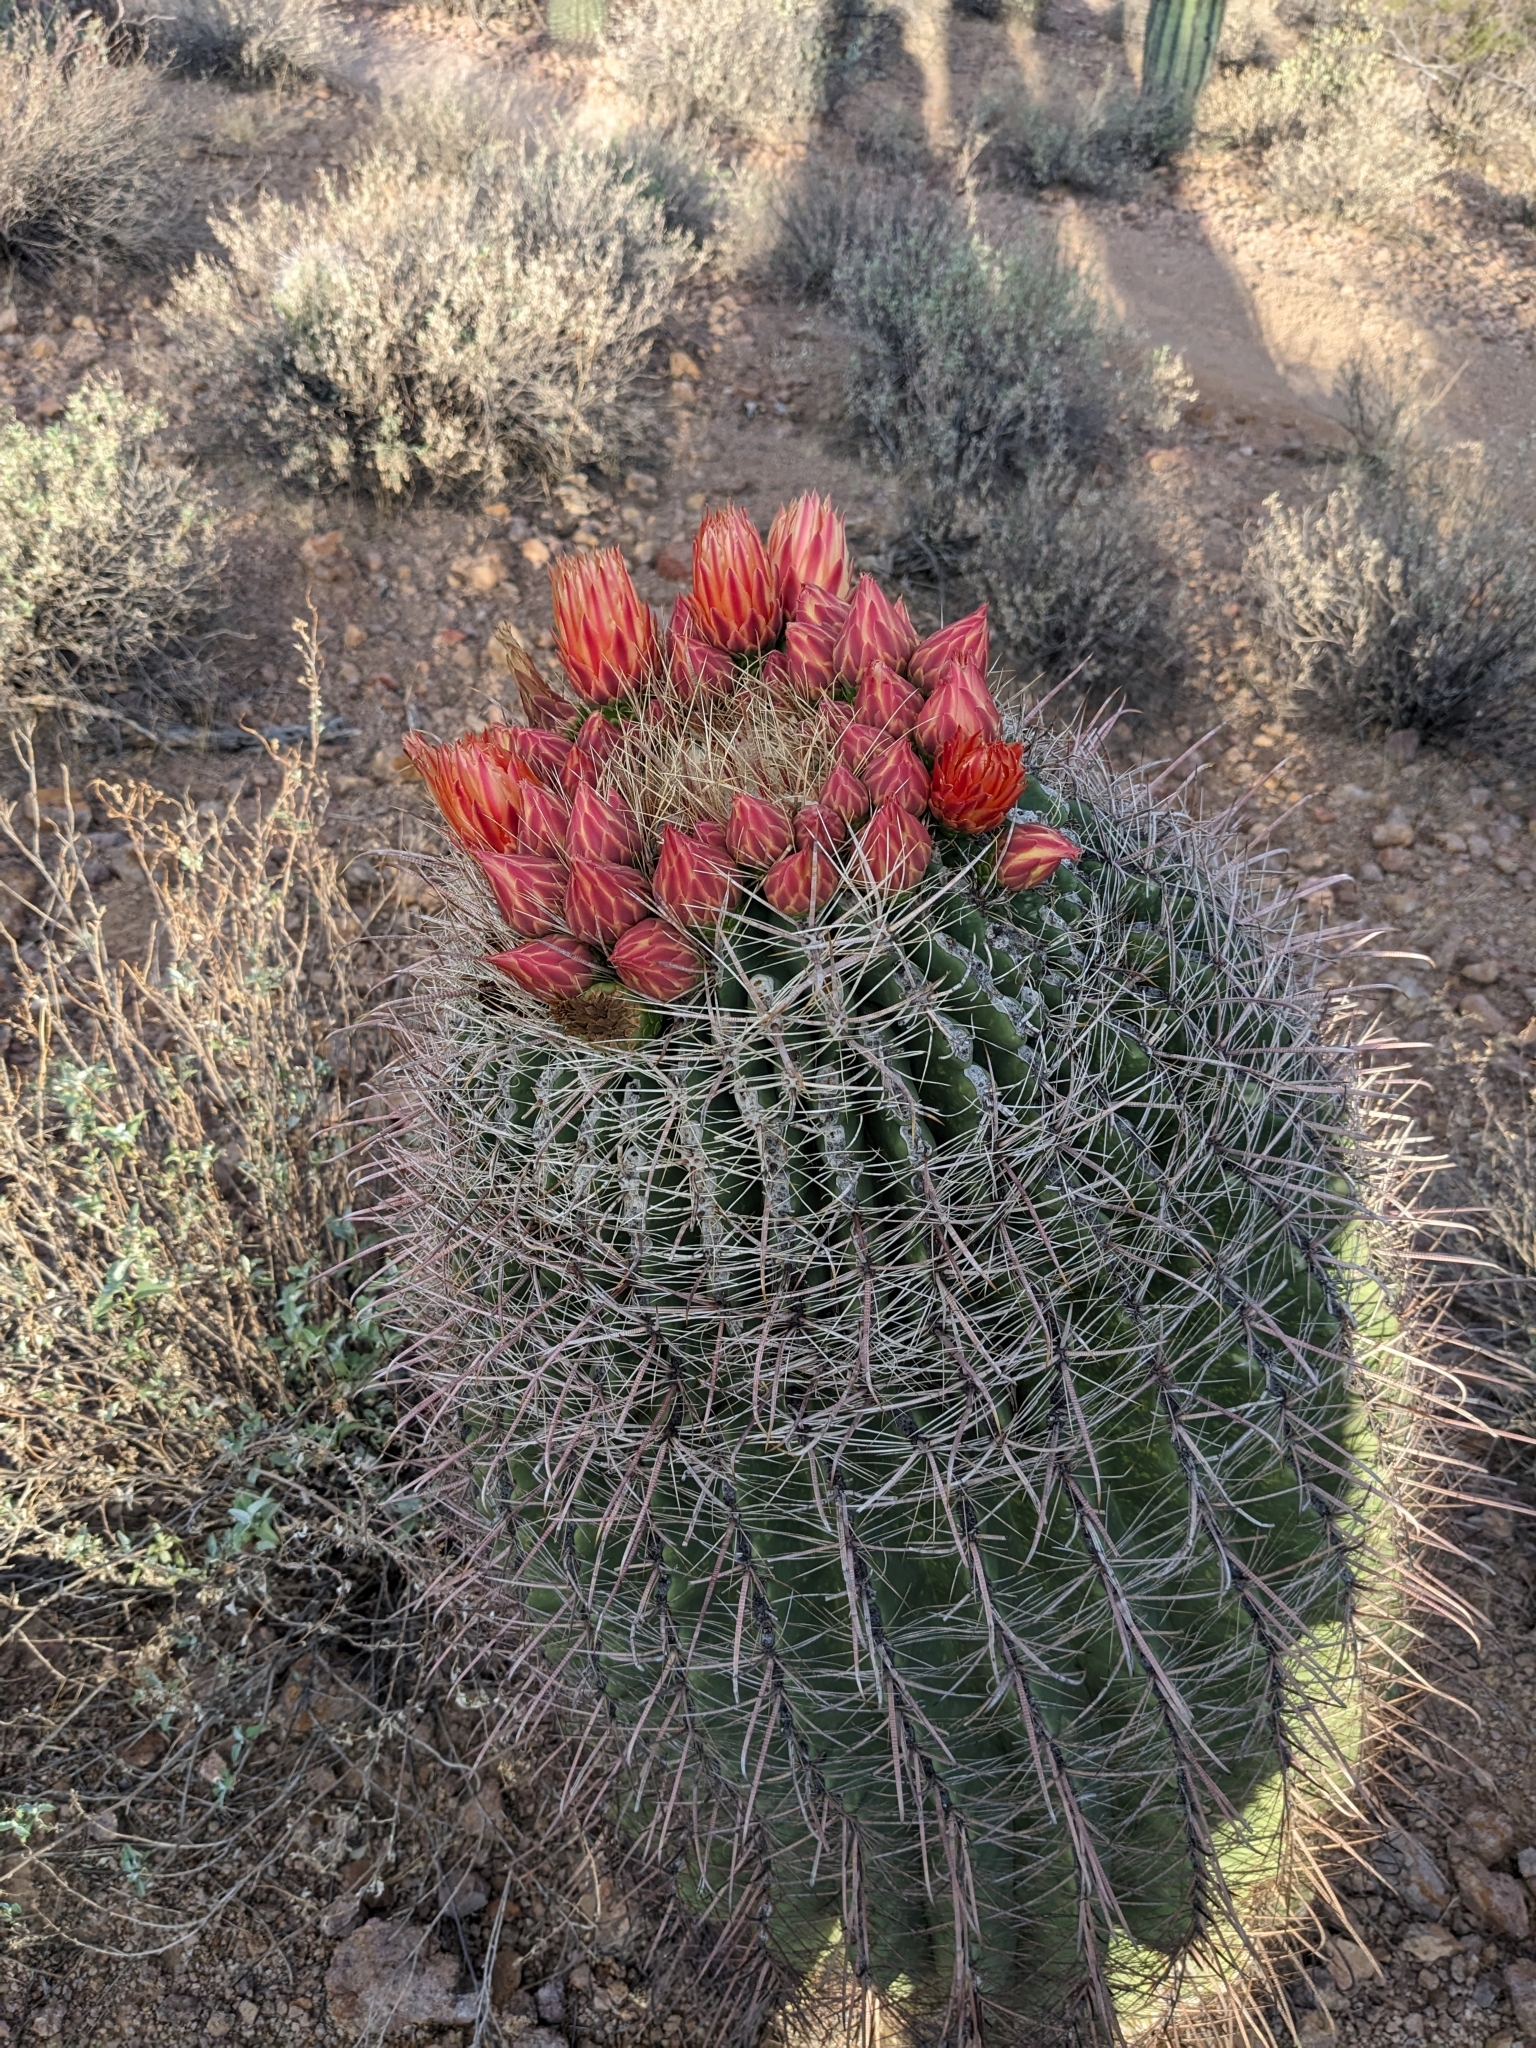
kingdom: Plantae
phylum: Tracheophyta
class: Magnoliopsida
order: Caryophyllales
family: Cactaceae
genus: Ferocactus
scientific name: Ferocactus wislizeni
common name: Candy barrel cactus
